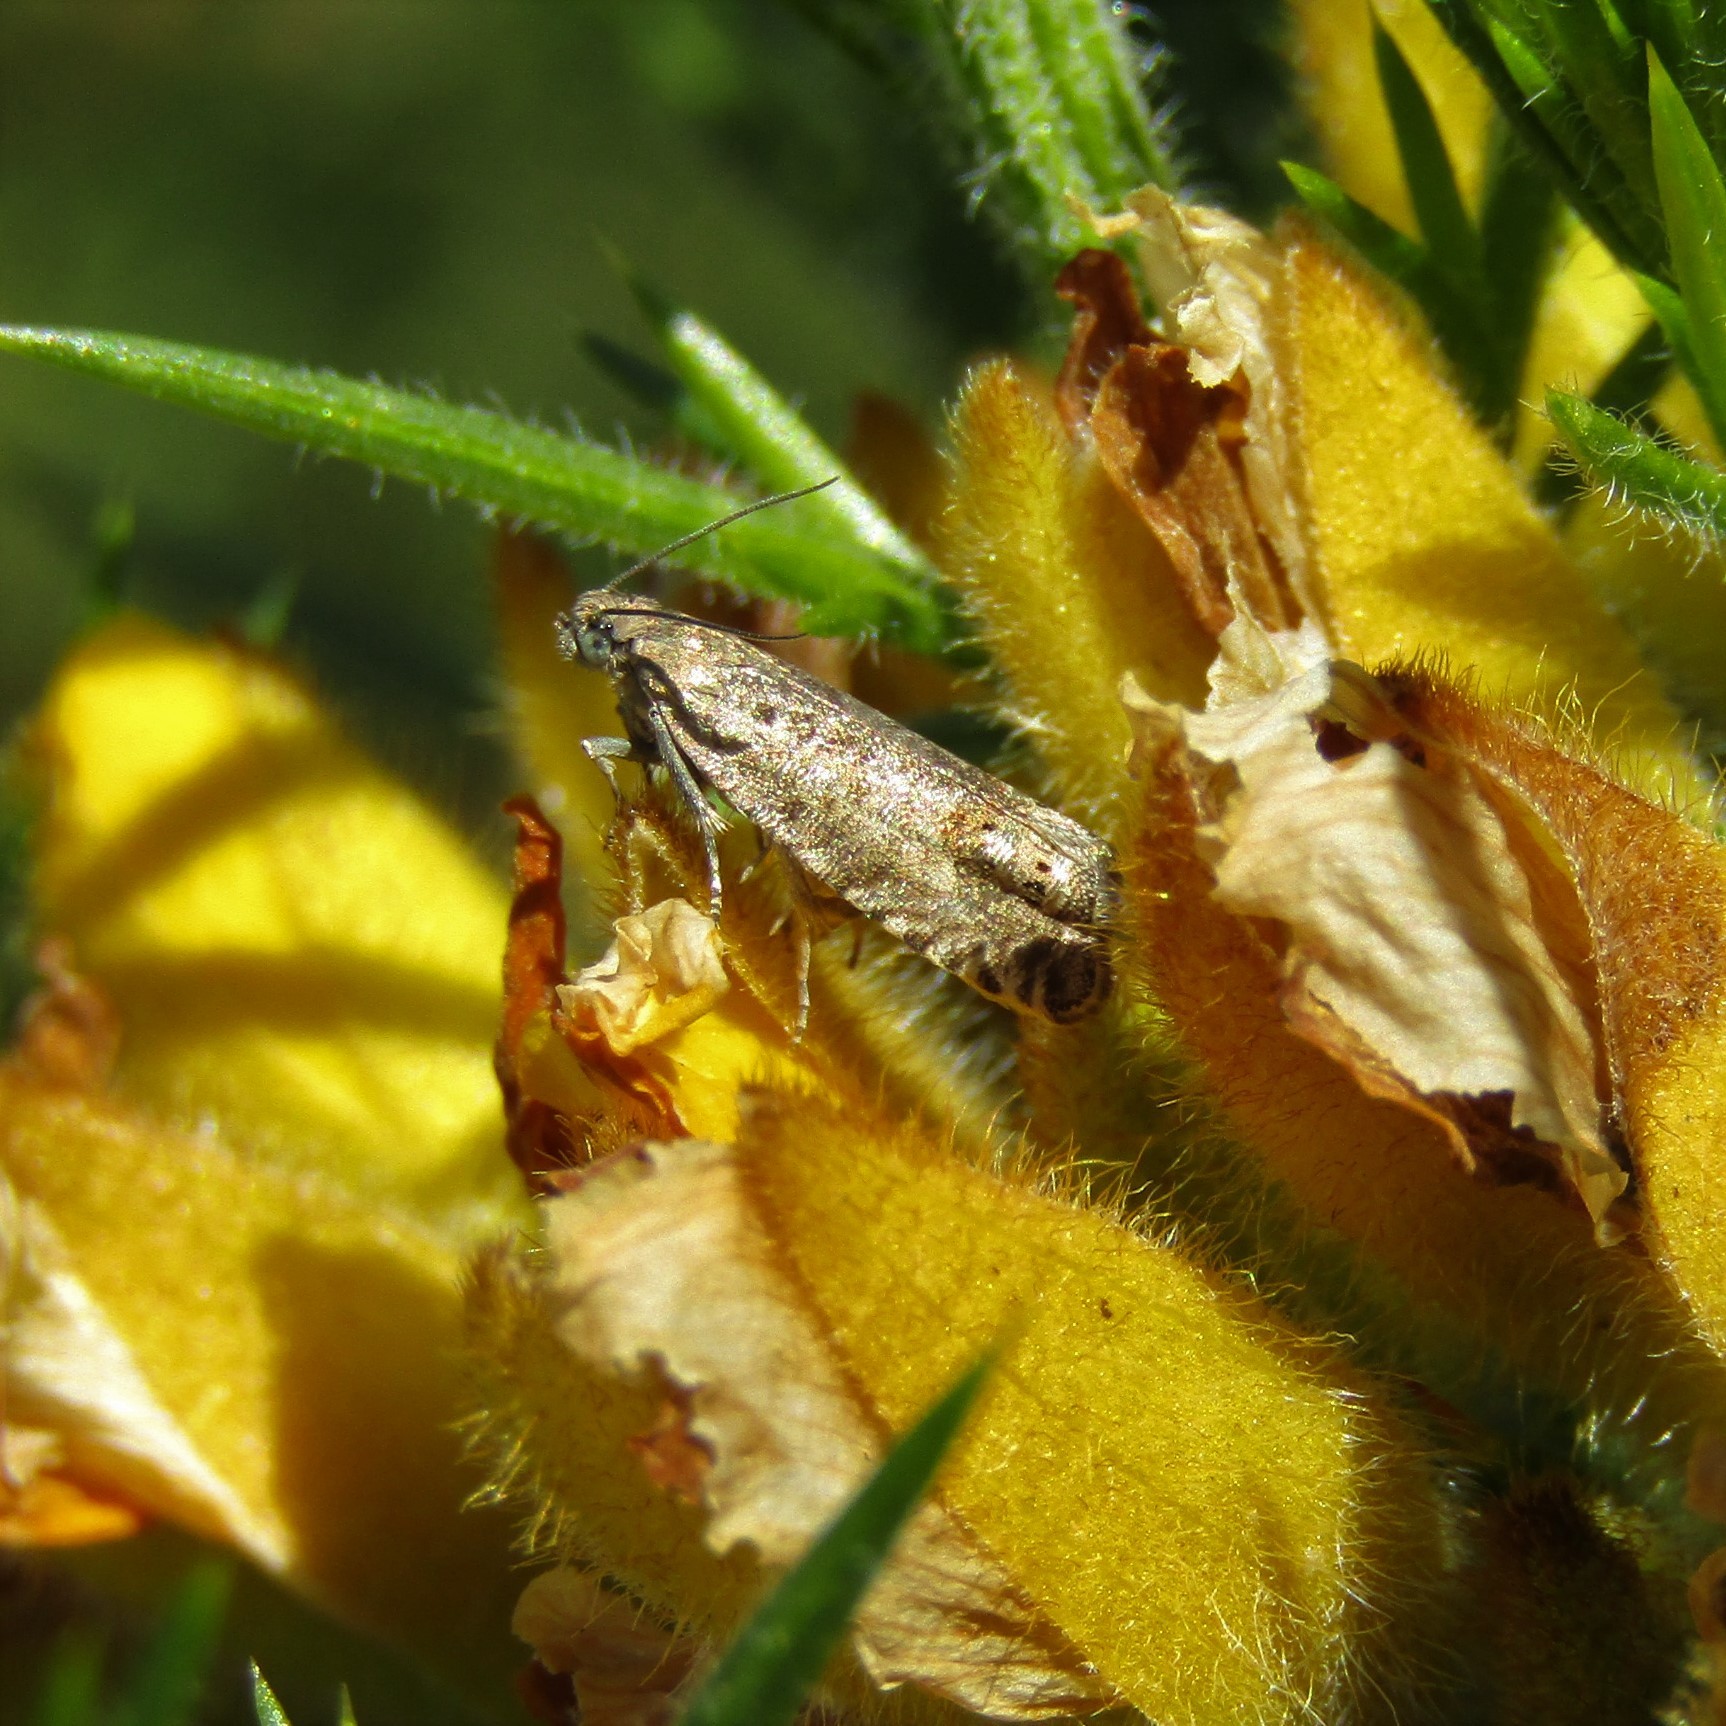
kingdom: Animalia
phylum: Arthropoda
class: Insecta
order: Lepidoptera
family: Tortricidae
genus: Cydia
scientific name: Cydia succedana
